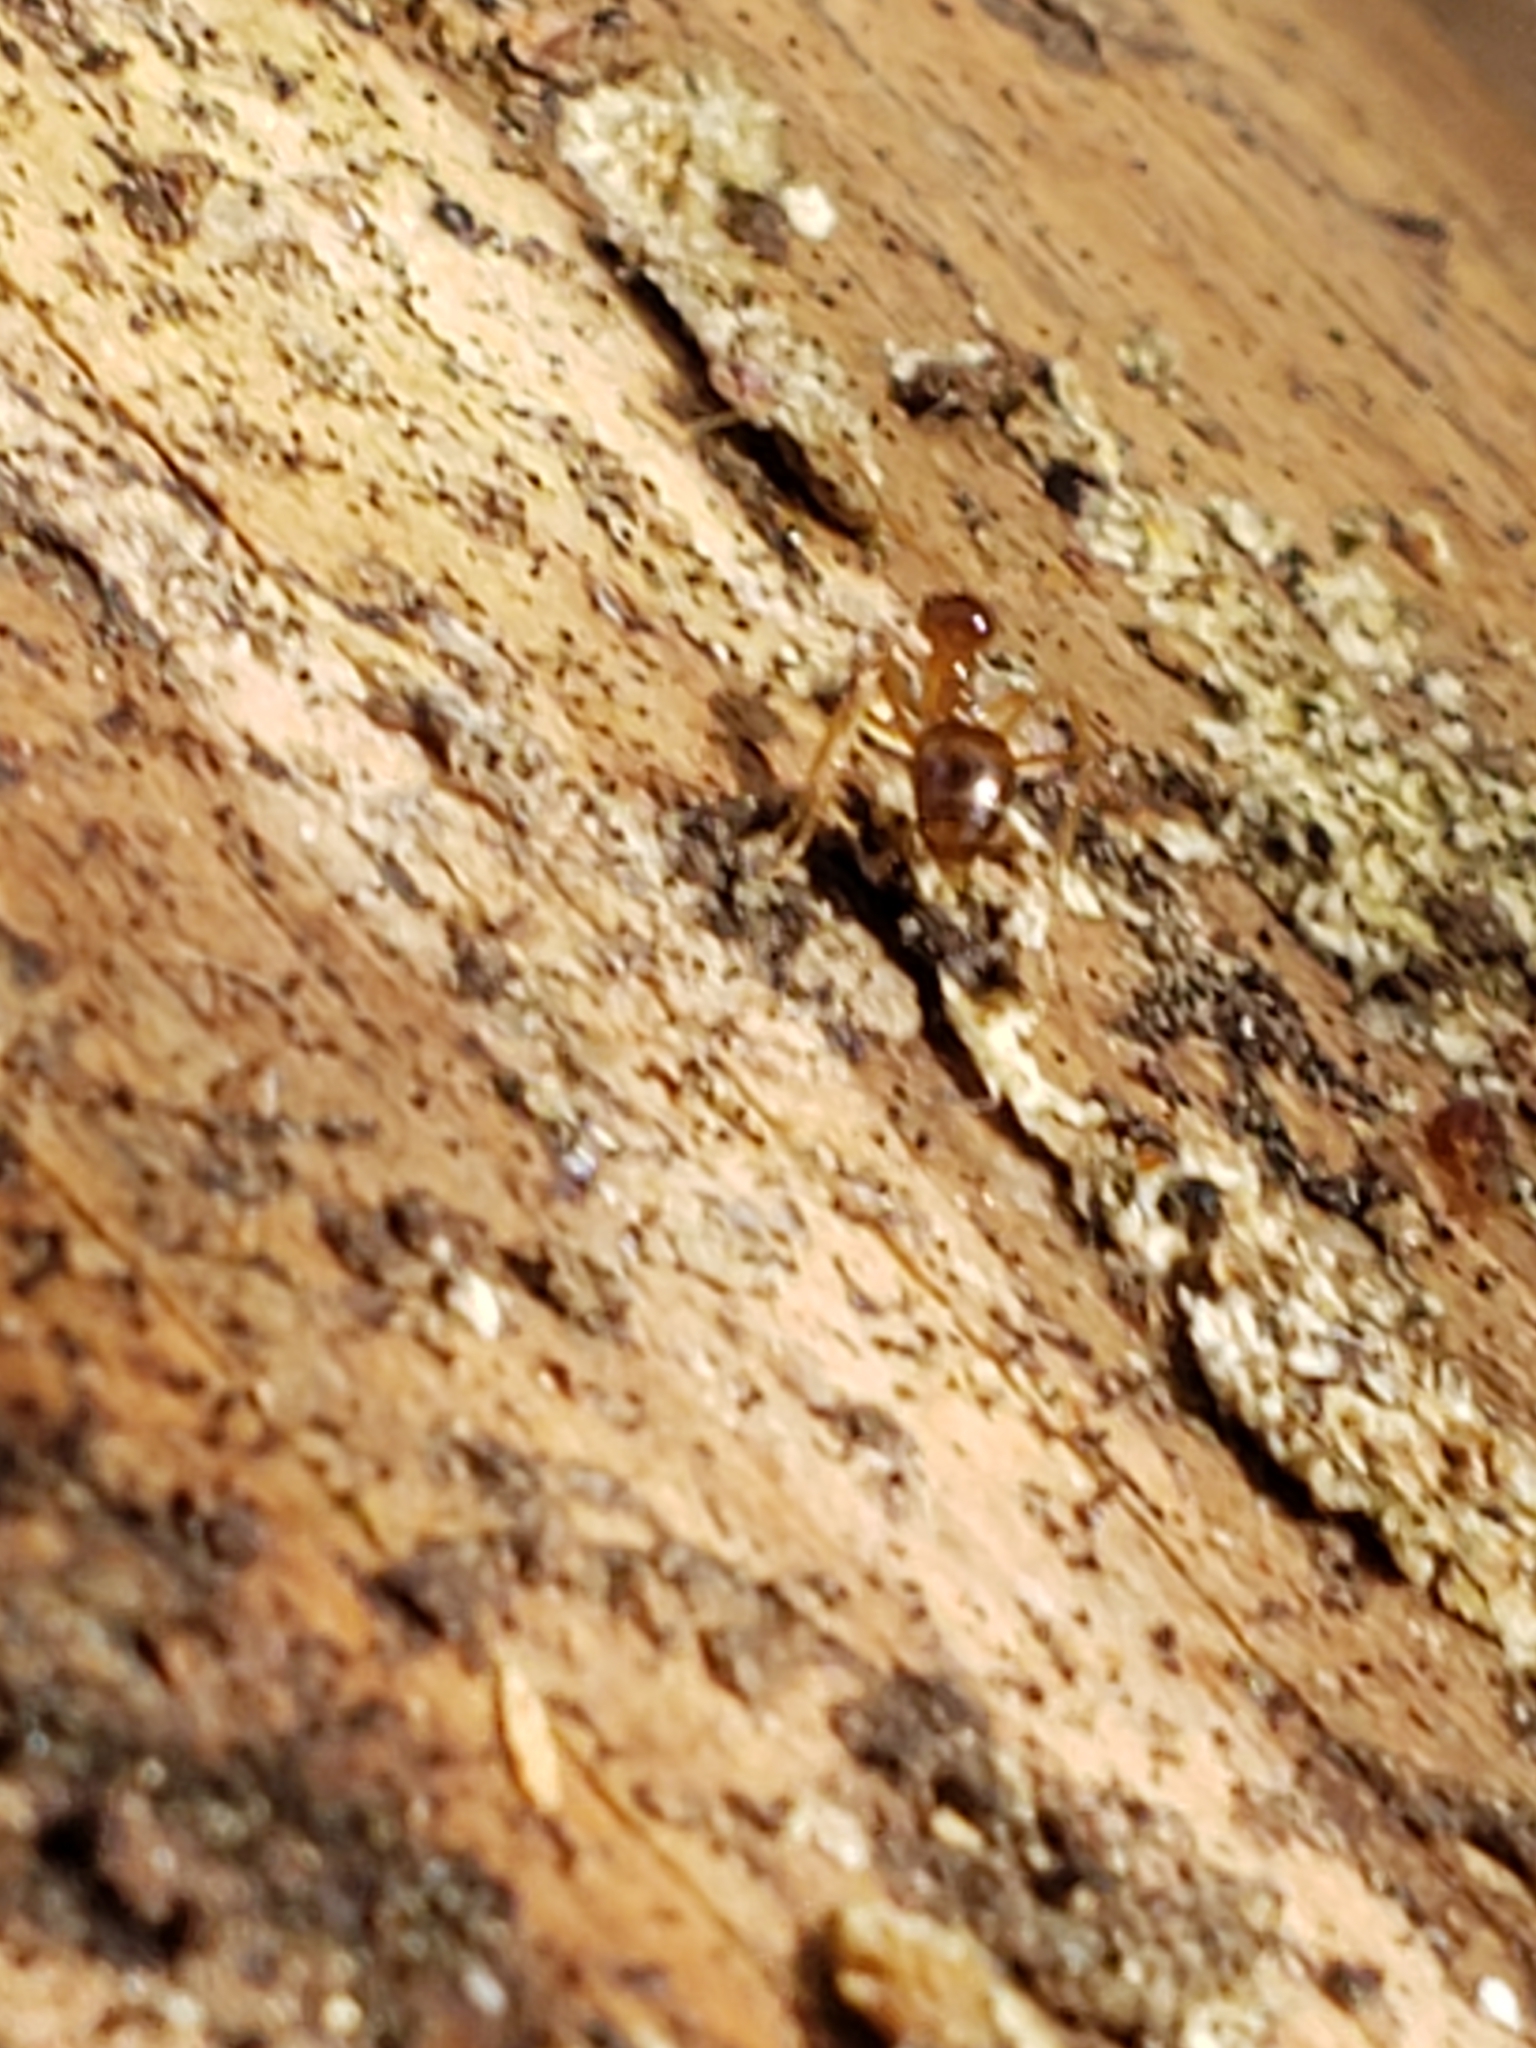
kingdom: Animalia
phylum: Arthropoda
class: Insecta
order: Hymenoptera
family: Formicidae
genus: Prenolepis
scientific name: Prenolepis imparis
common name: Small honey ant
